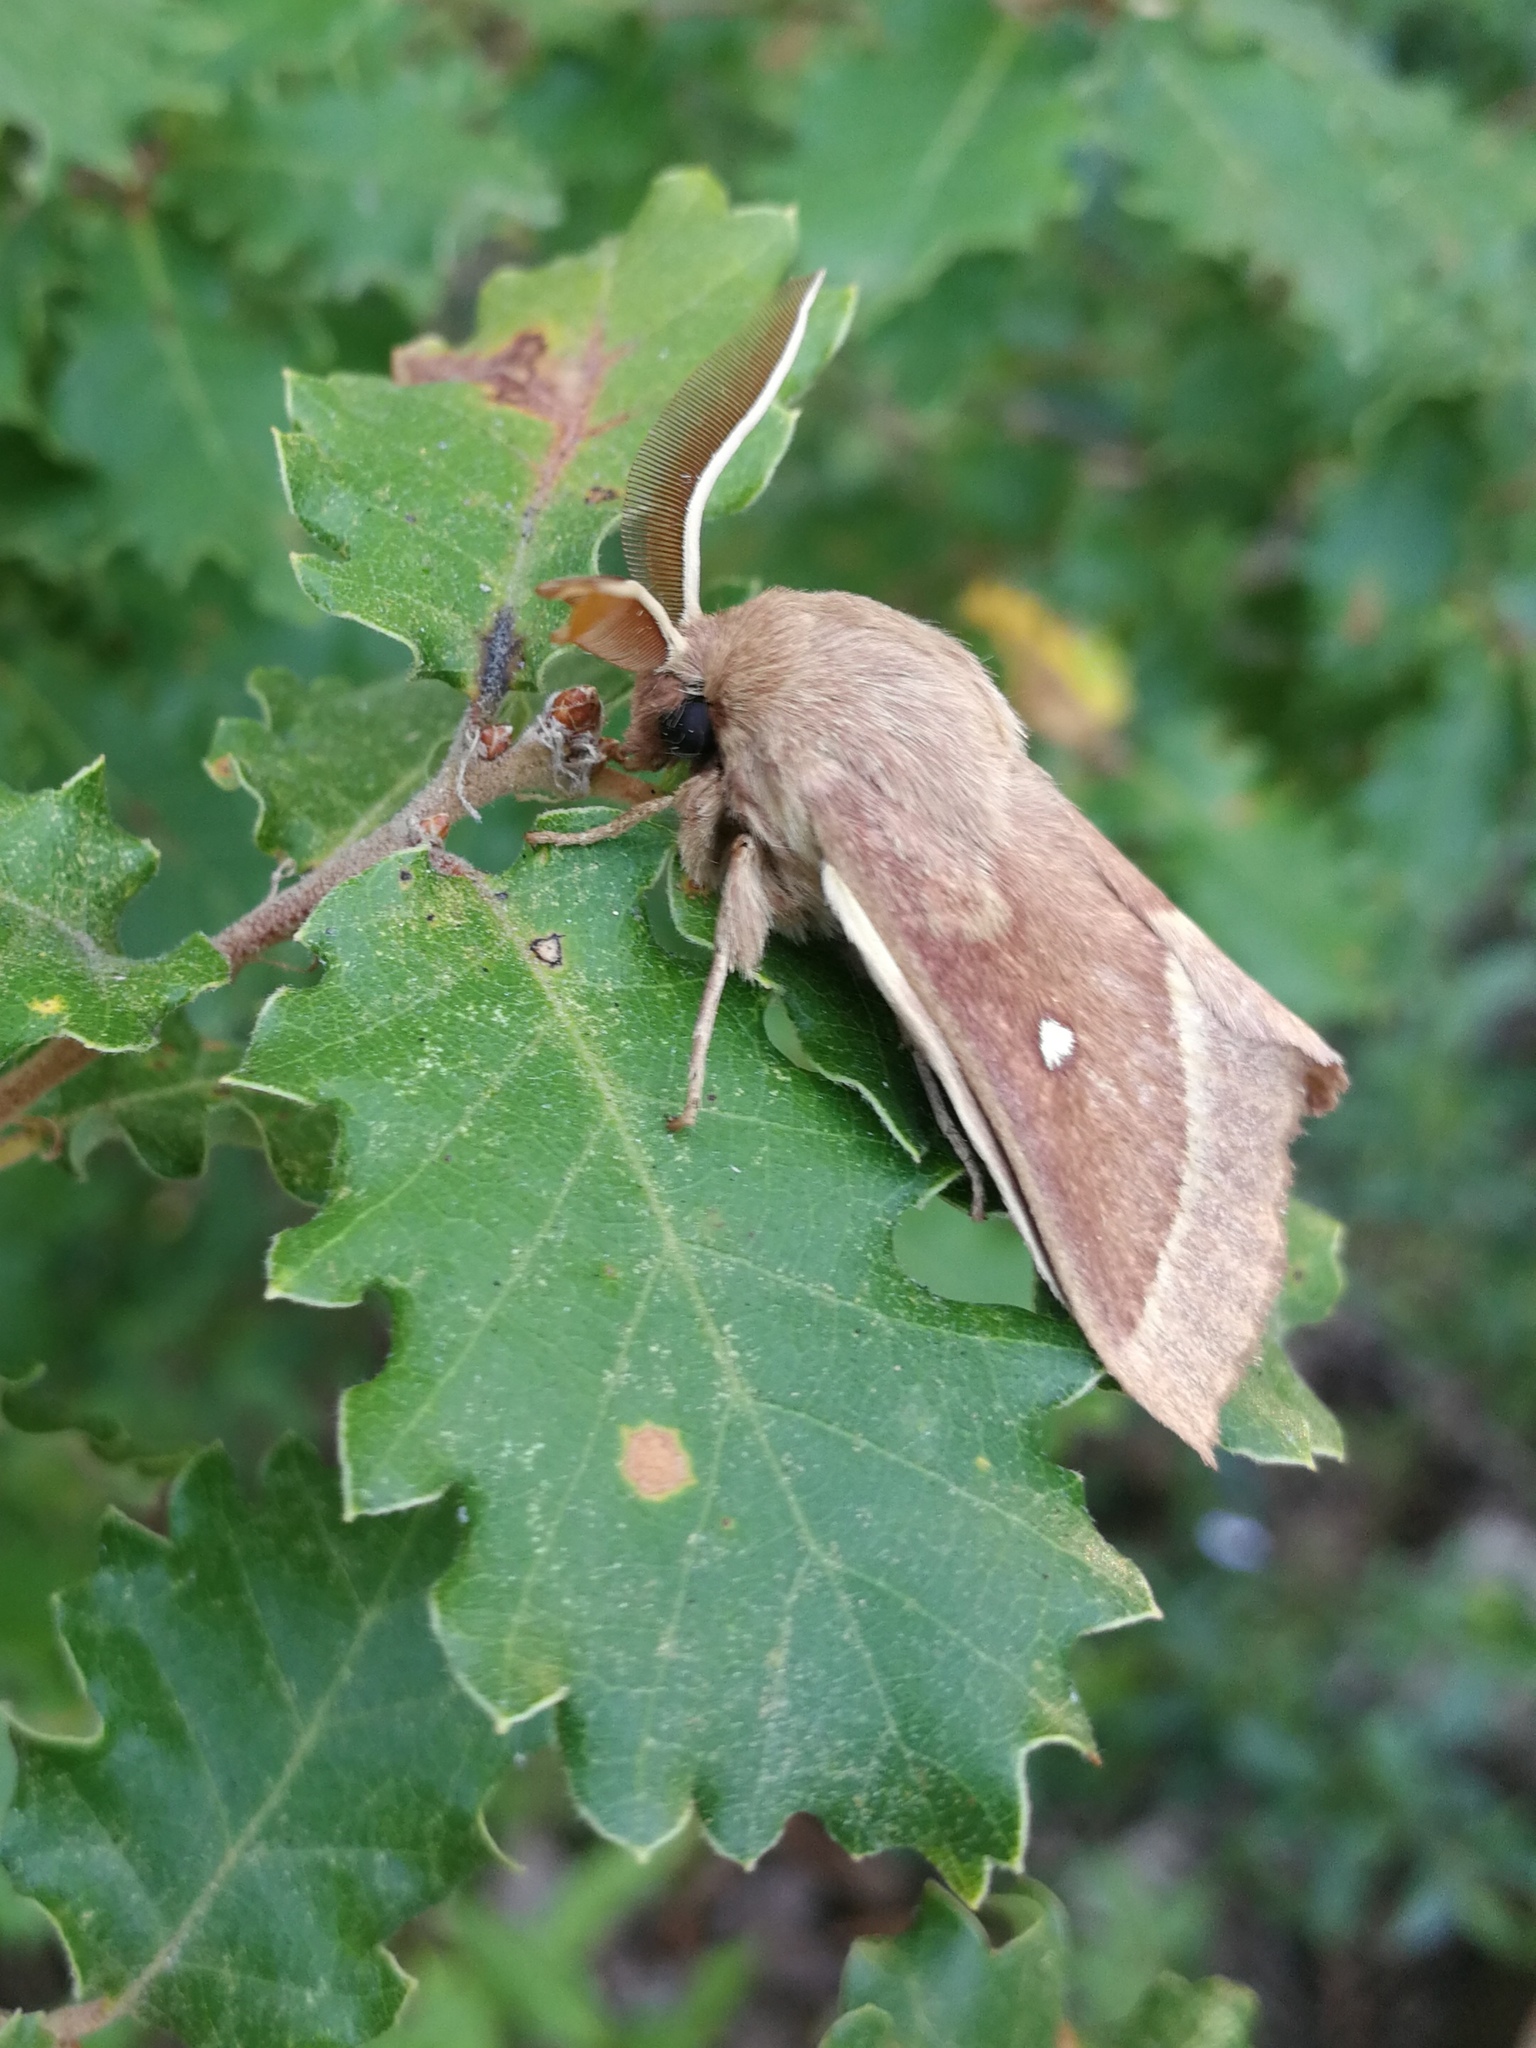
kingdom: Animalia
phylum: Arthropoda
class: Insecta
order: Lepidoptera
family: Lasiocampidae
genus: Lasiocampa
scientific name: Lasiocampa trifolii
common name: Grass eggar
